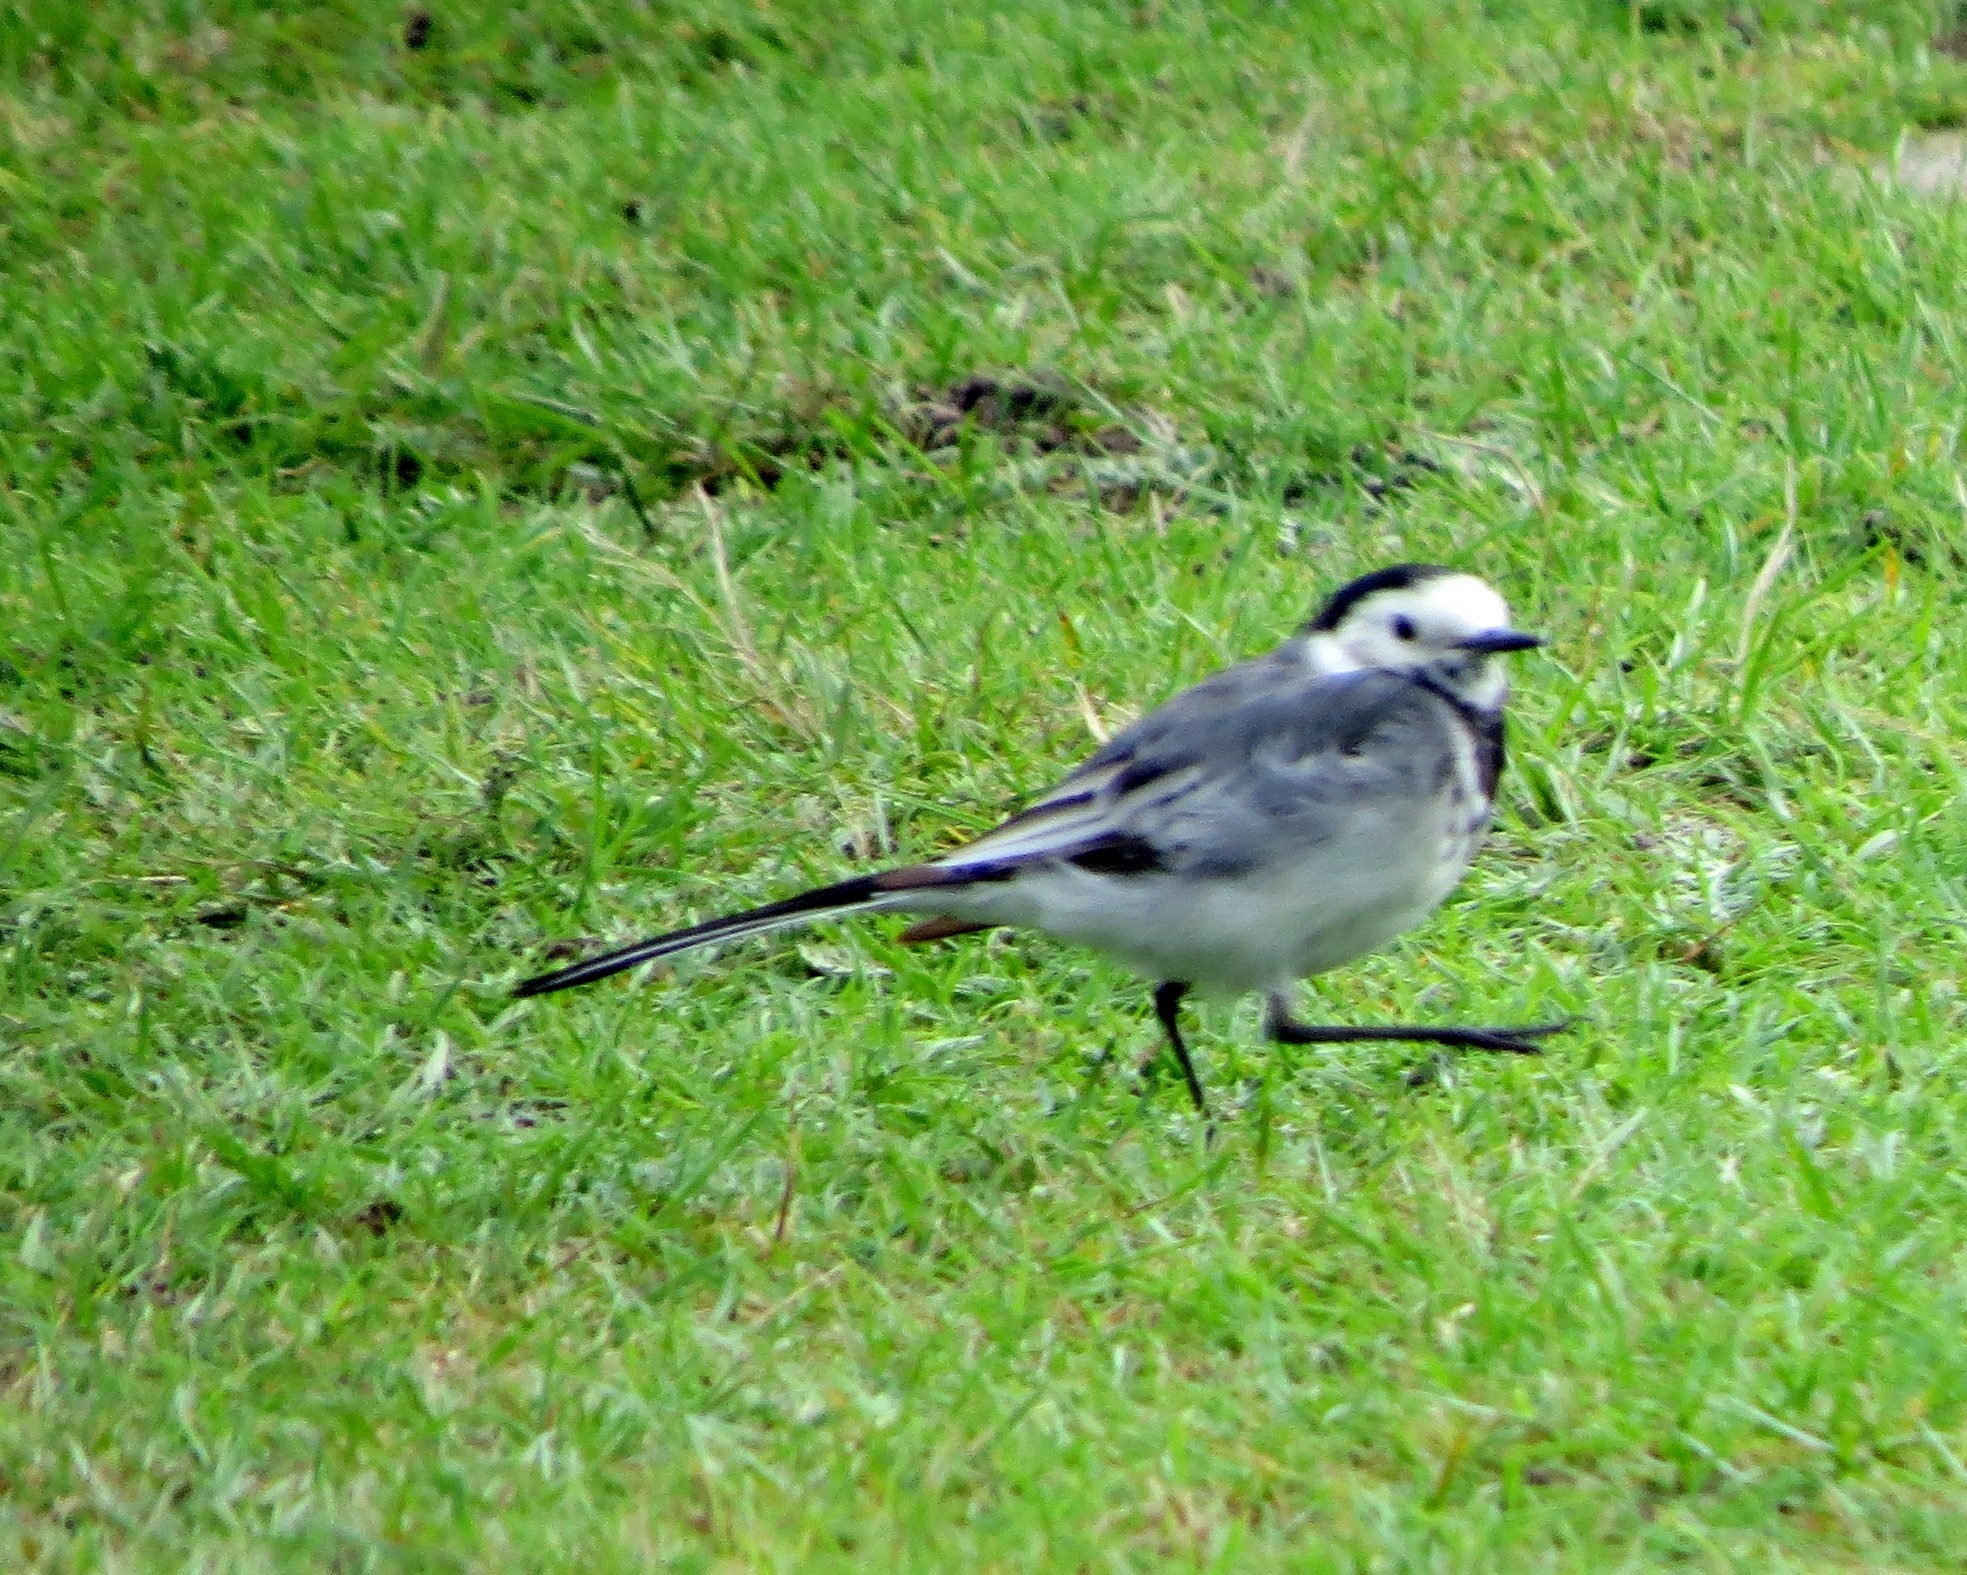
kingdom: Animalia
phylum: Chordata
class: Aves
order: Passeriformes
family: Motacillidae
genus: Motacilla
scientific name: Motacilla alba
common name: White wagtail
